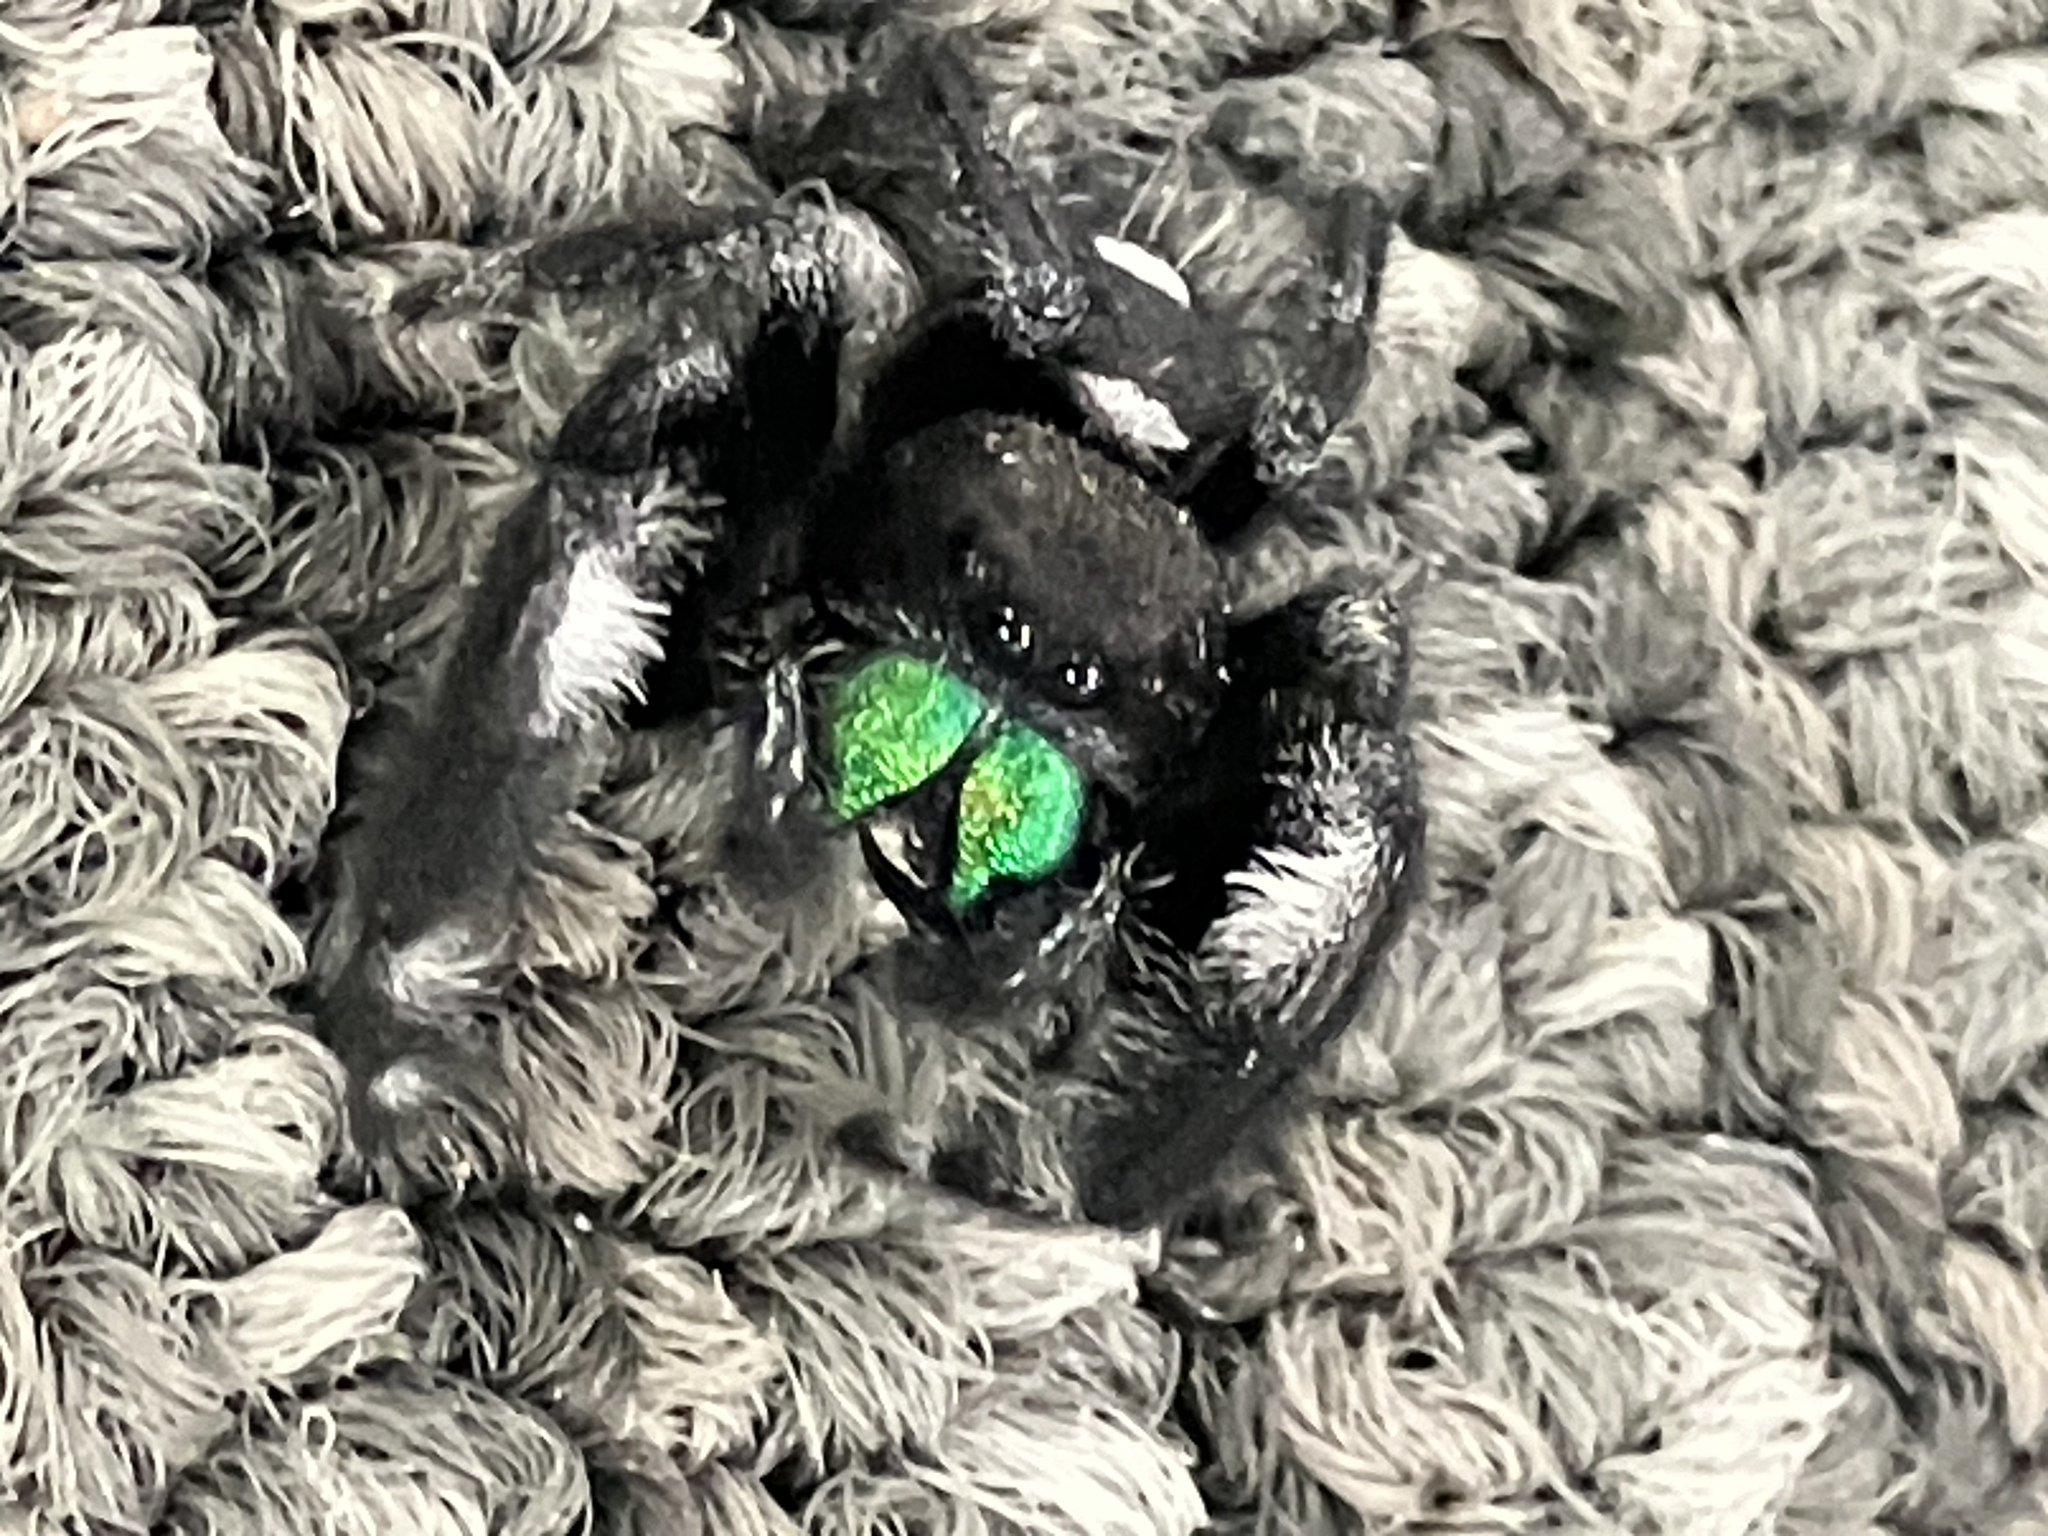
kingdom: Animalia
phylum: Arthropoda
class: Arachnida
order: Araneae
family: Salticidae
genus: Phidippus
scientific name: Phidippus regius
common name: Regal jumper
